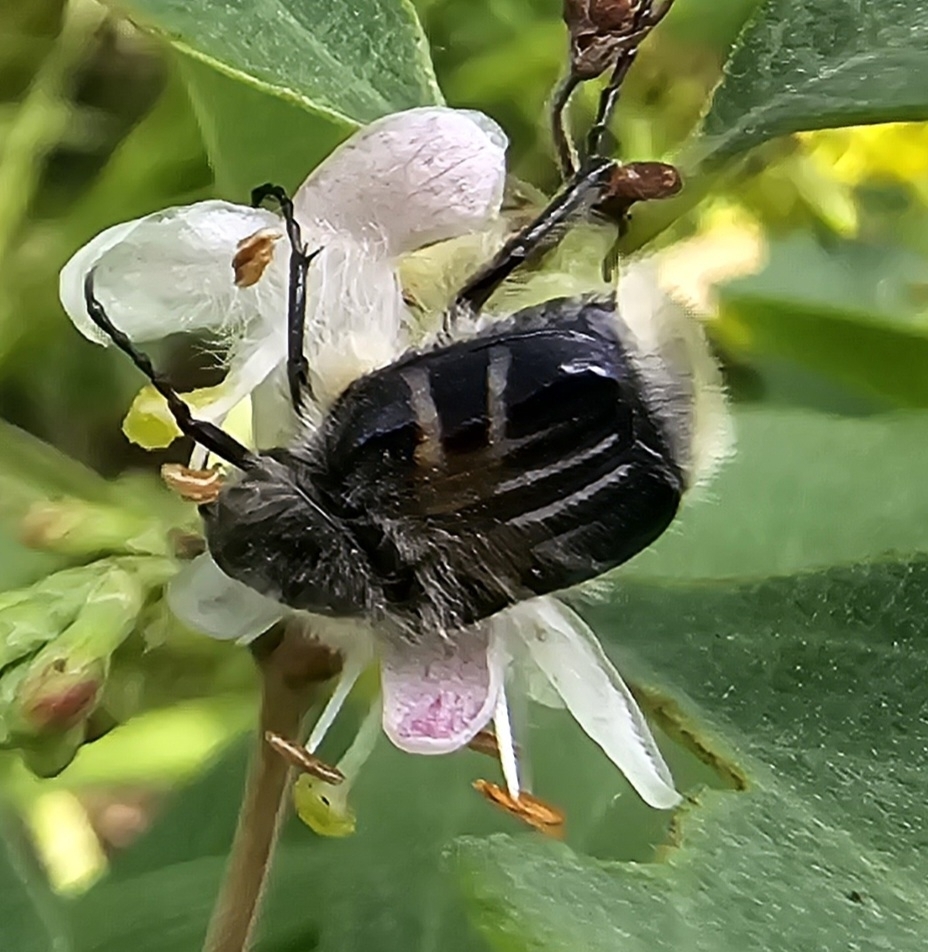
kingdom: Animalia
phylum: Arthropoda
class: Insecta
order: Coleoptera
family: Scarabaeidae
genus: Trichiotinus
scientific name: Trichiotinus assimilis
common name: Bee-mimic beetle
